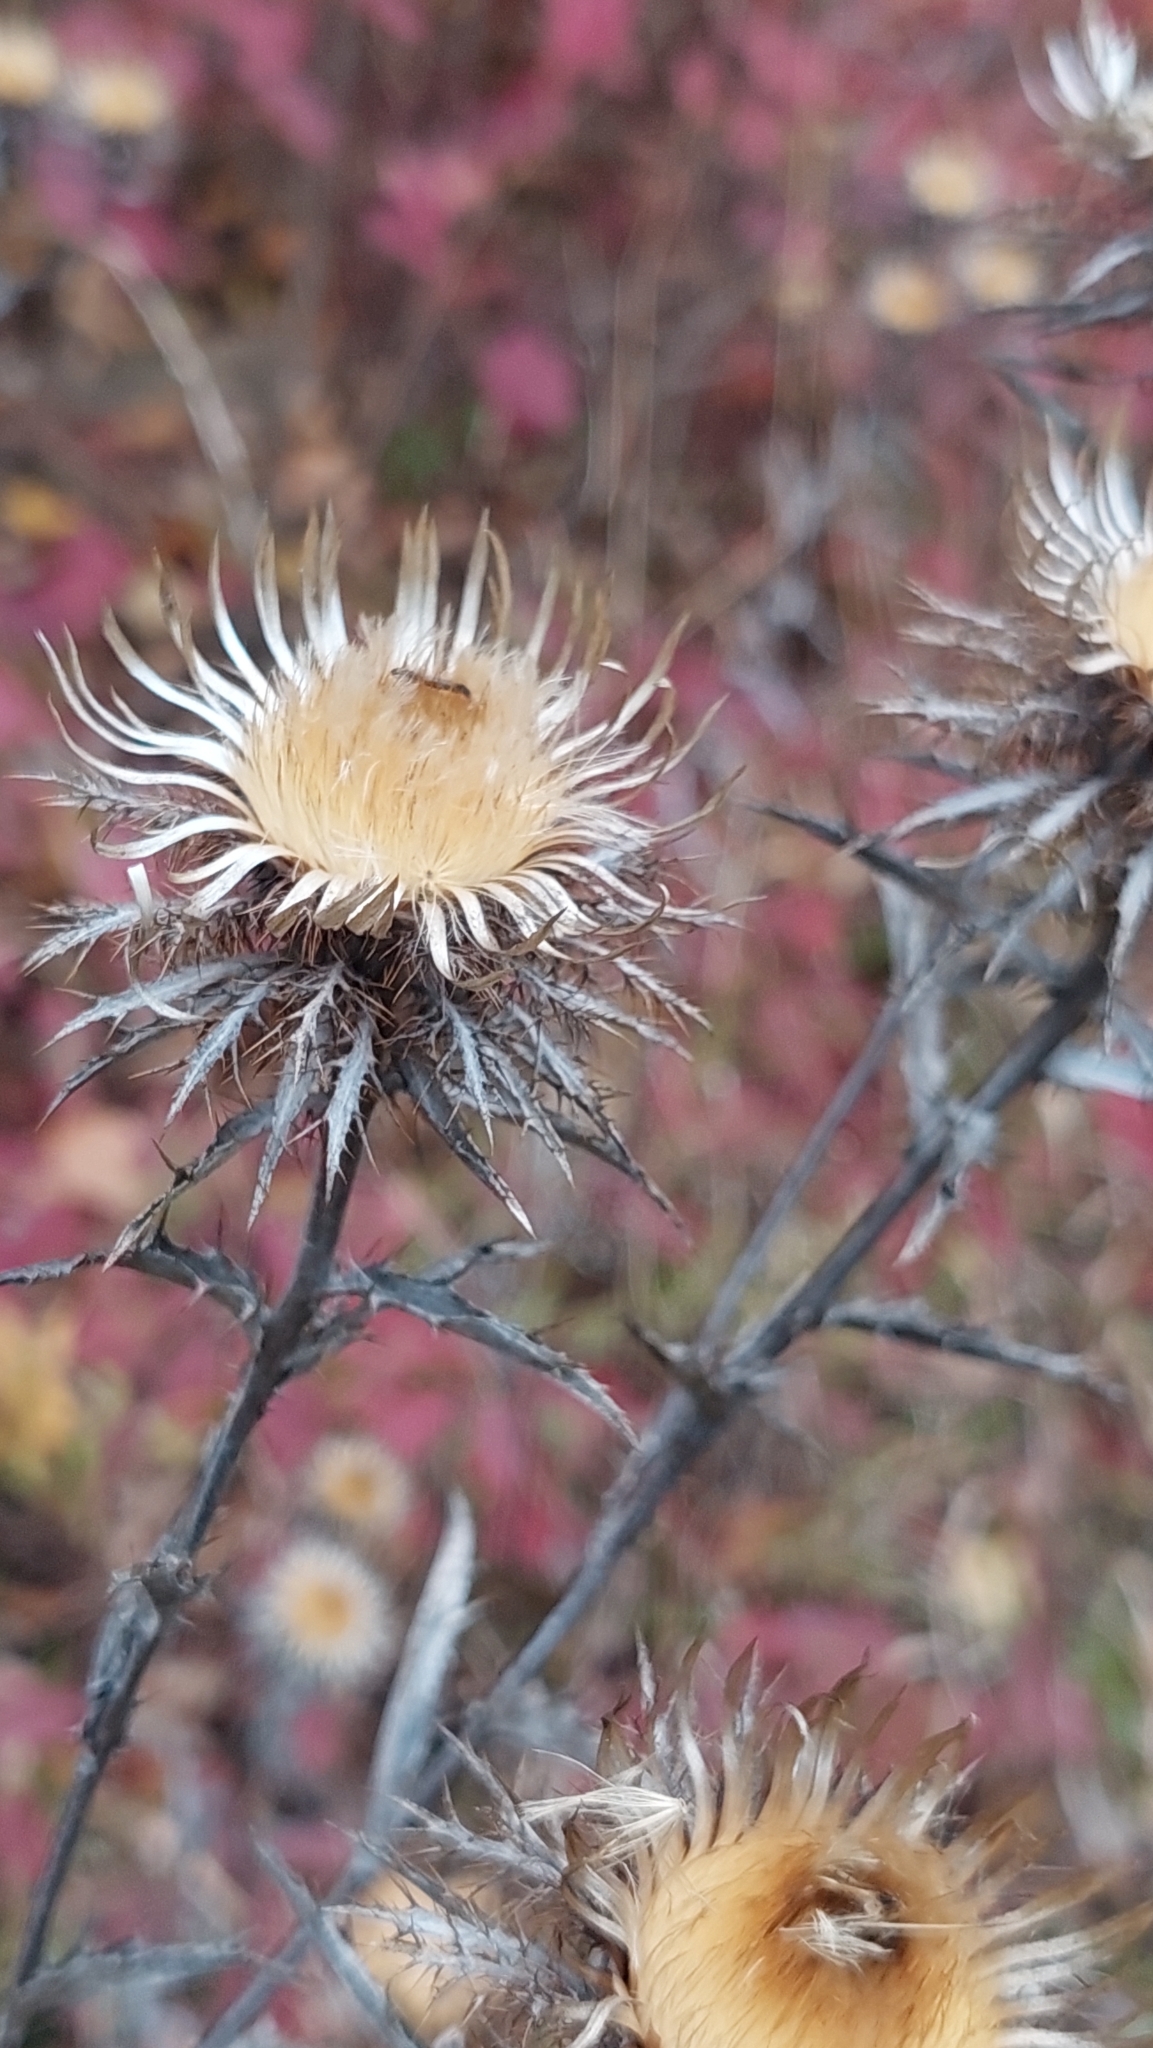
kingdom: Plantae
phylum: Tracheophyta
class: Magnoliopsida
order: Asterales
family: Asteraceae
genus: Carlina
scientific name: Carlina biebersteinii
